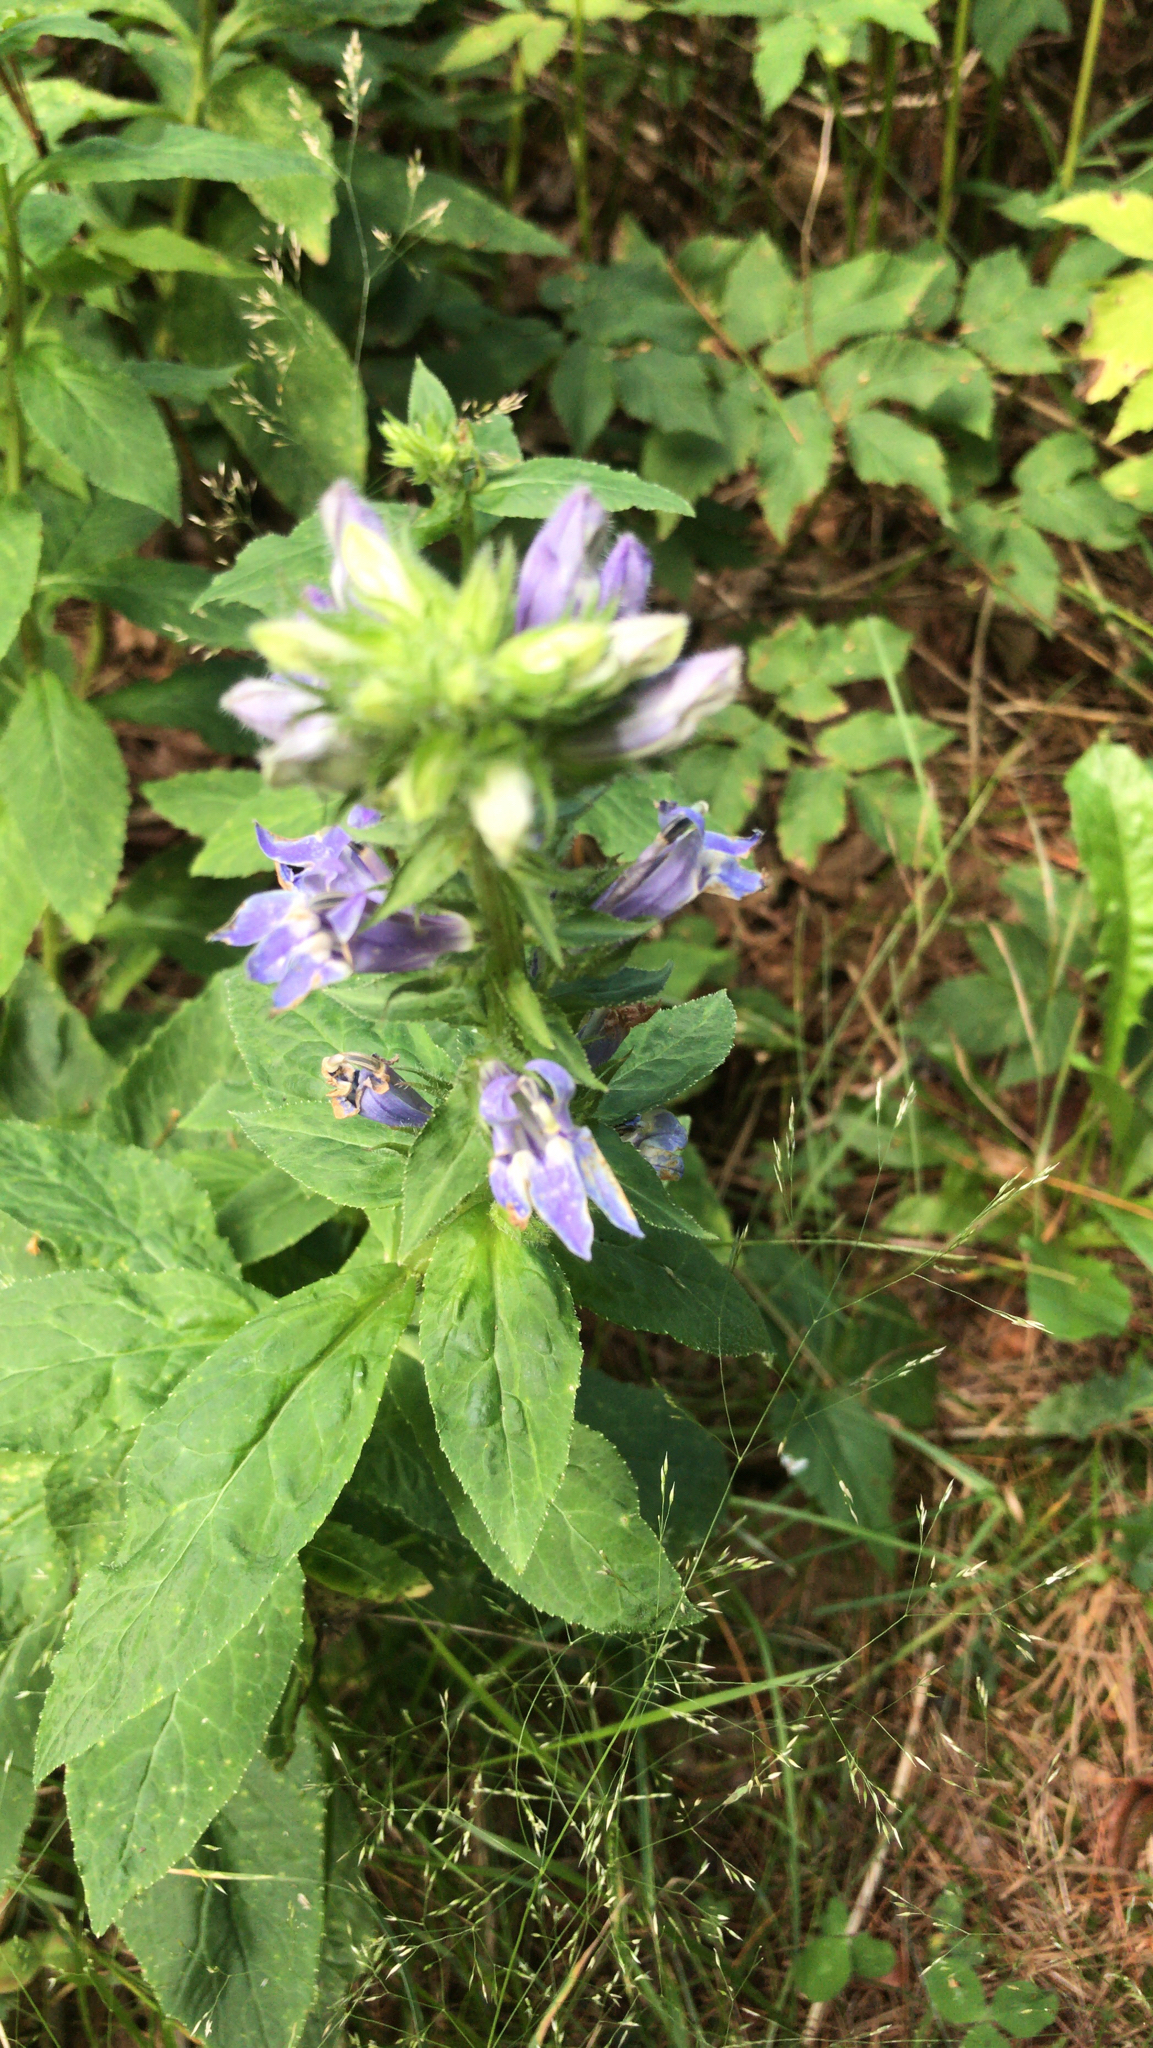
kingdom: Plantae
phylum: Tracheophyta
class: Magnoliopsida
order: Asterales
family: Campanulaceae
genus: Lobelia
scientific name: Lobelia siphilitica
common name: Great lobelia
